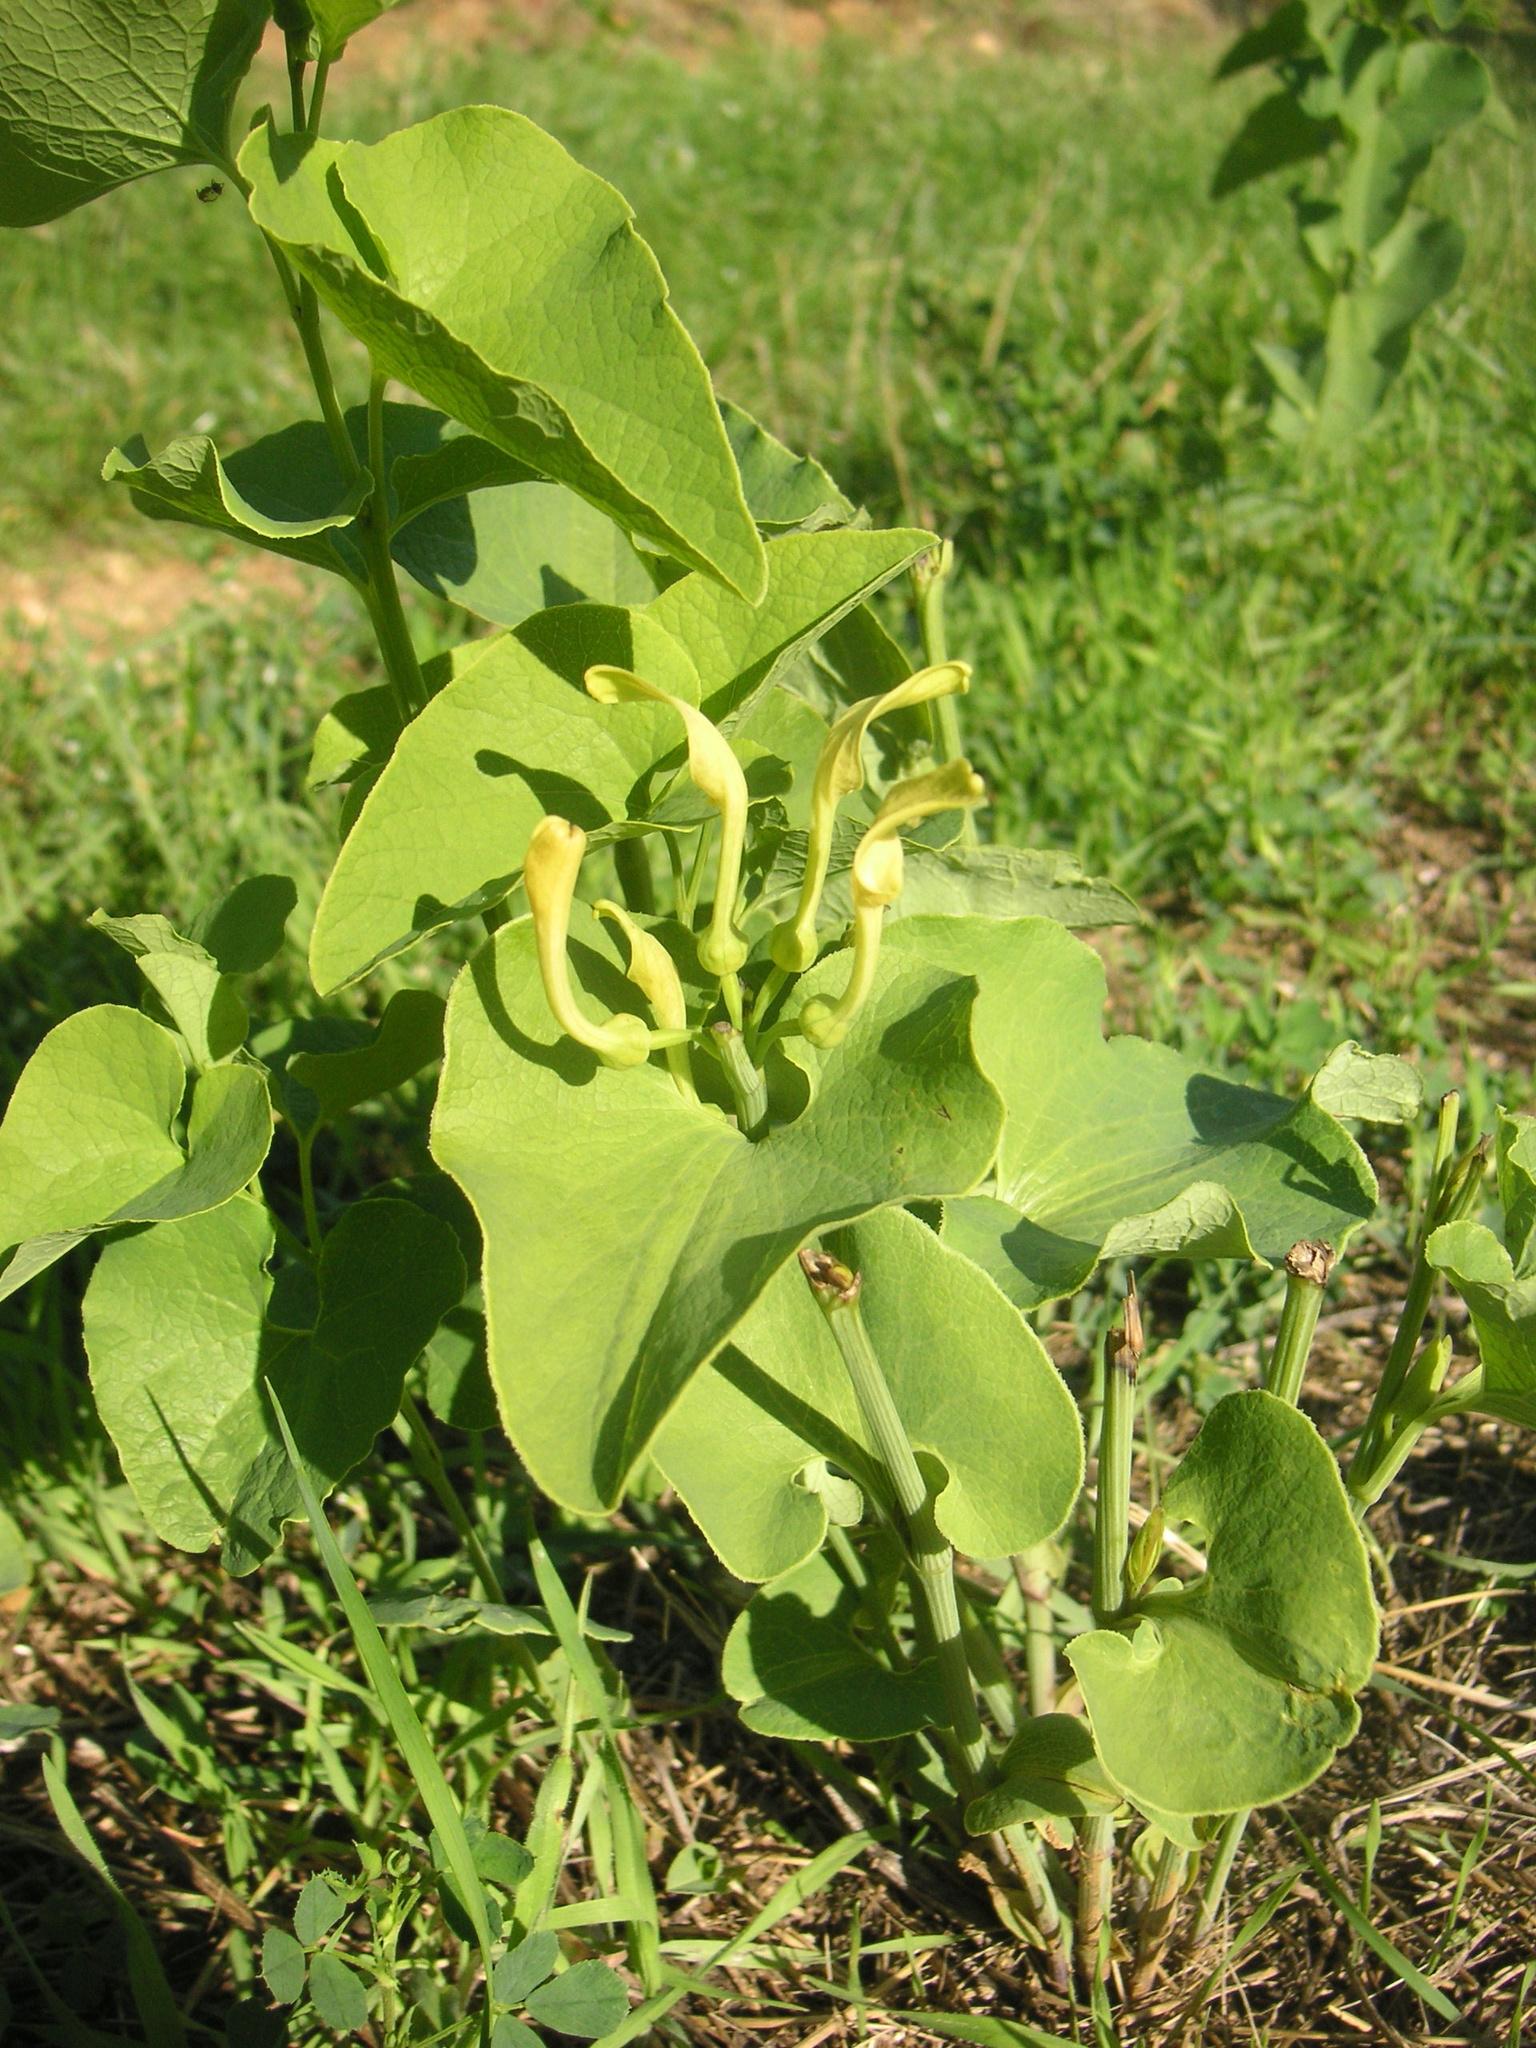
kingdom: Plantae
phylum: Tracheophyta
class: Magnoliopsida
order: Piperales
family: Aristolochiaceae
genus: Aristolochia
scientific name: Aristolochia clematitis
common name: Birthwort
